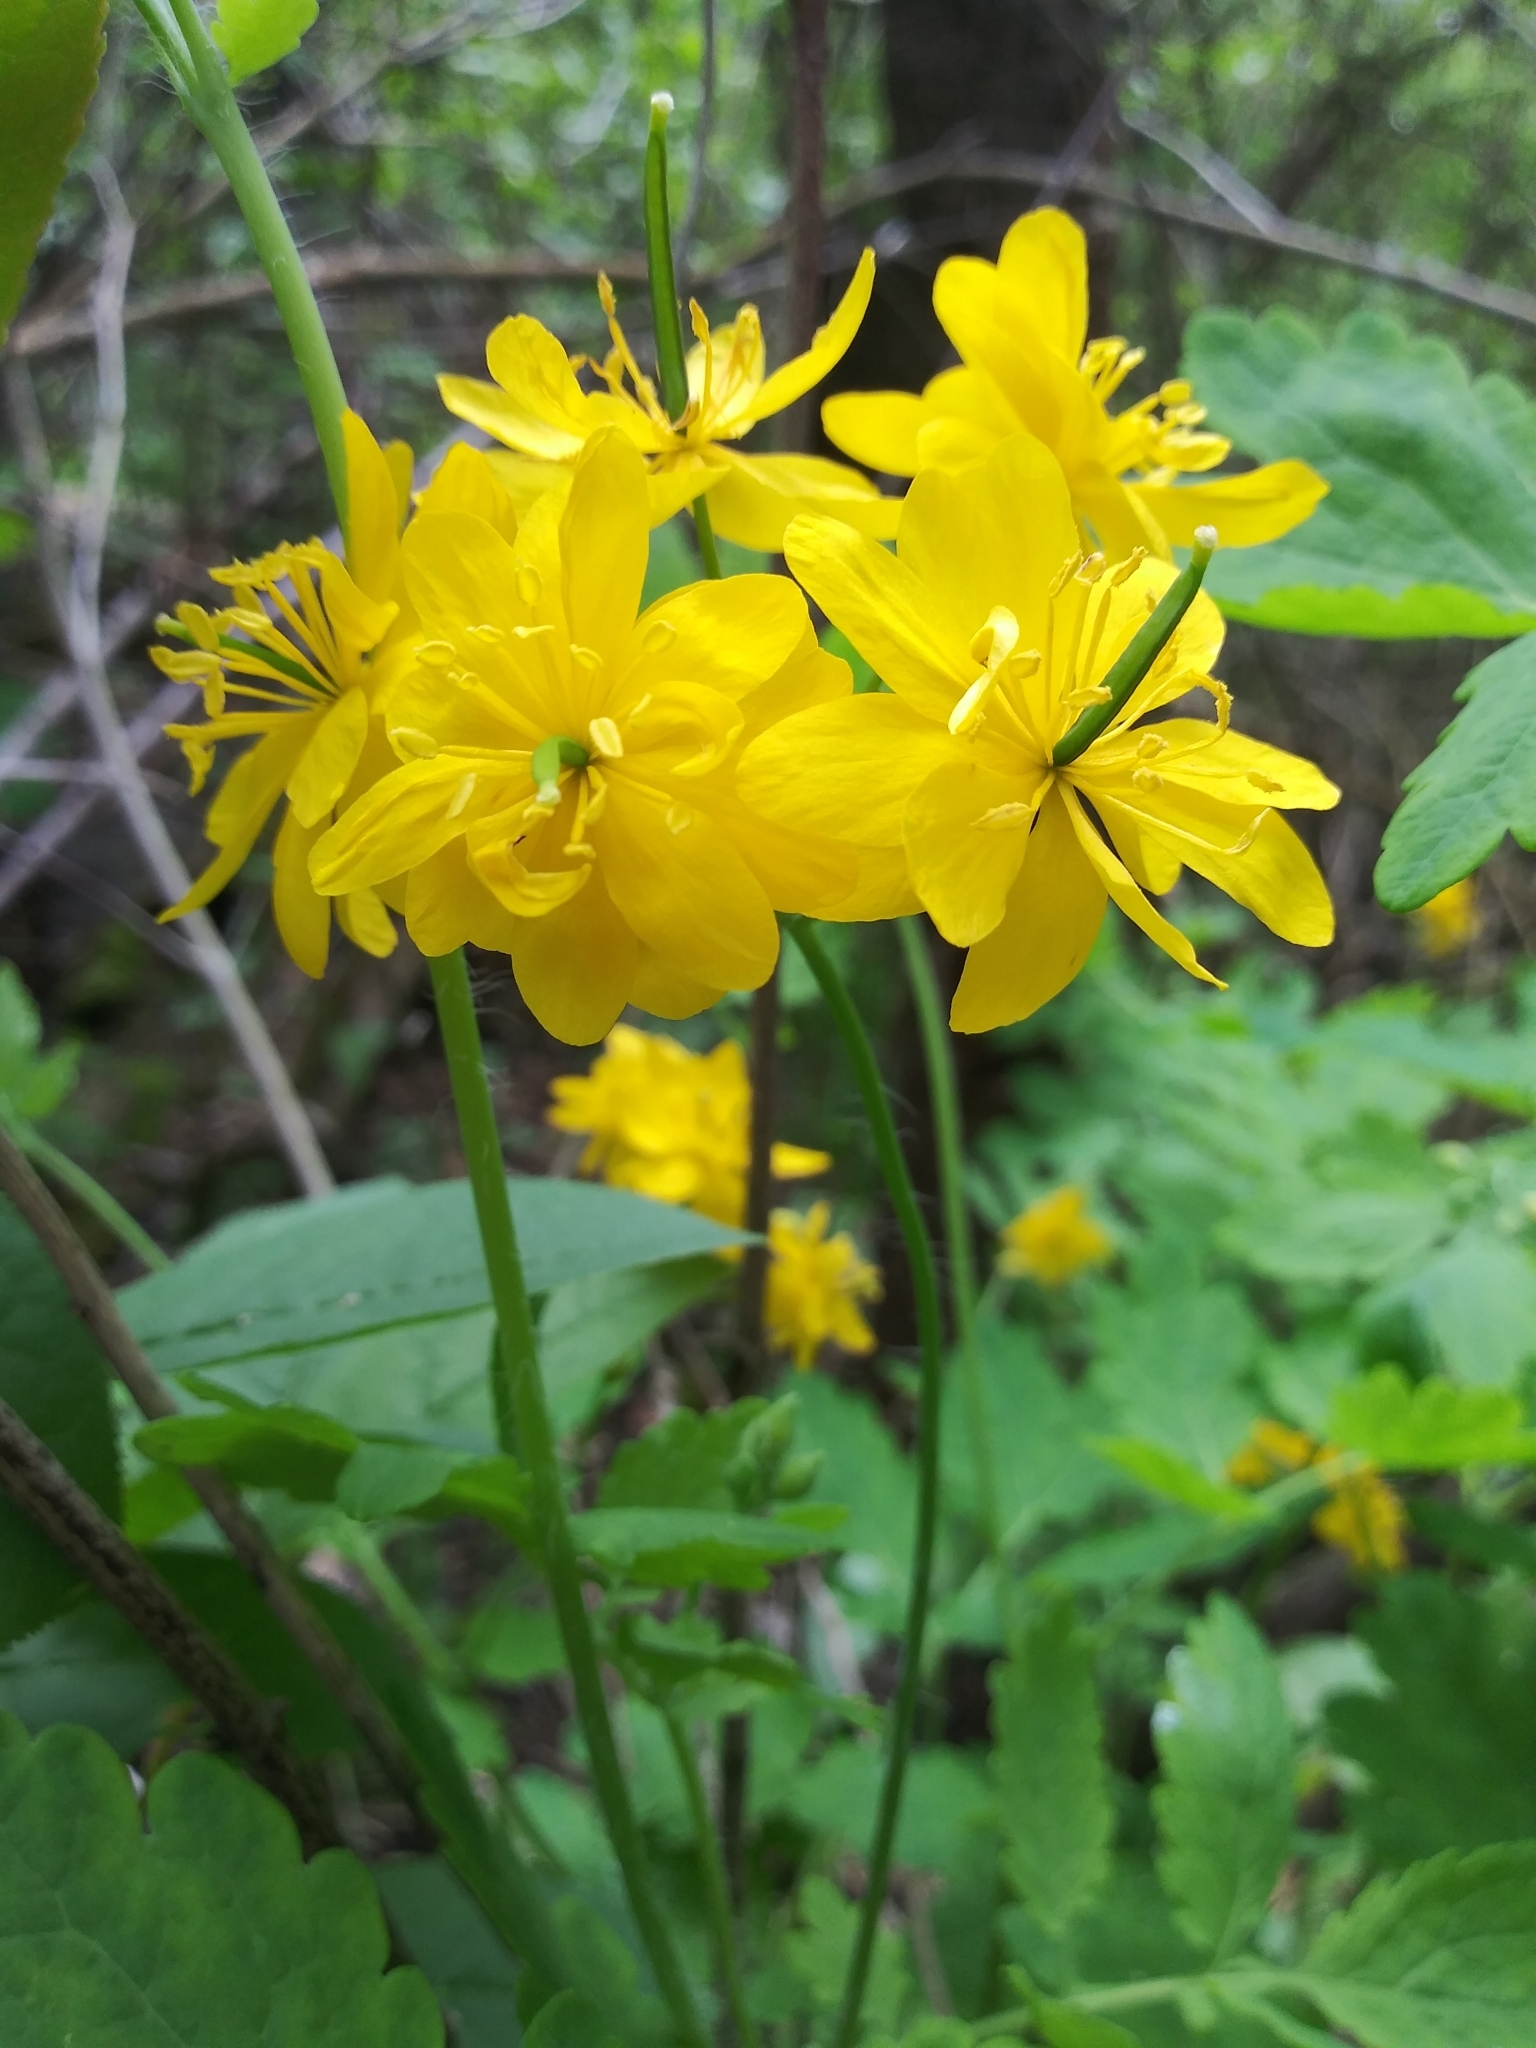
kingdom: Plantae
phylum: Tracheophyta
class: Magnoliopsida
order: Ranunculales
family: Papaveraceae
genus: Chelidonium
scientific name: Chelidonium majus
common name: Greater celandine
